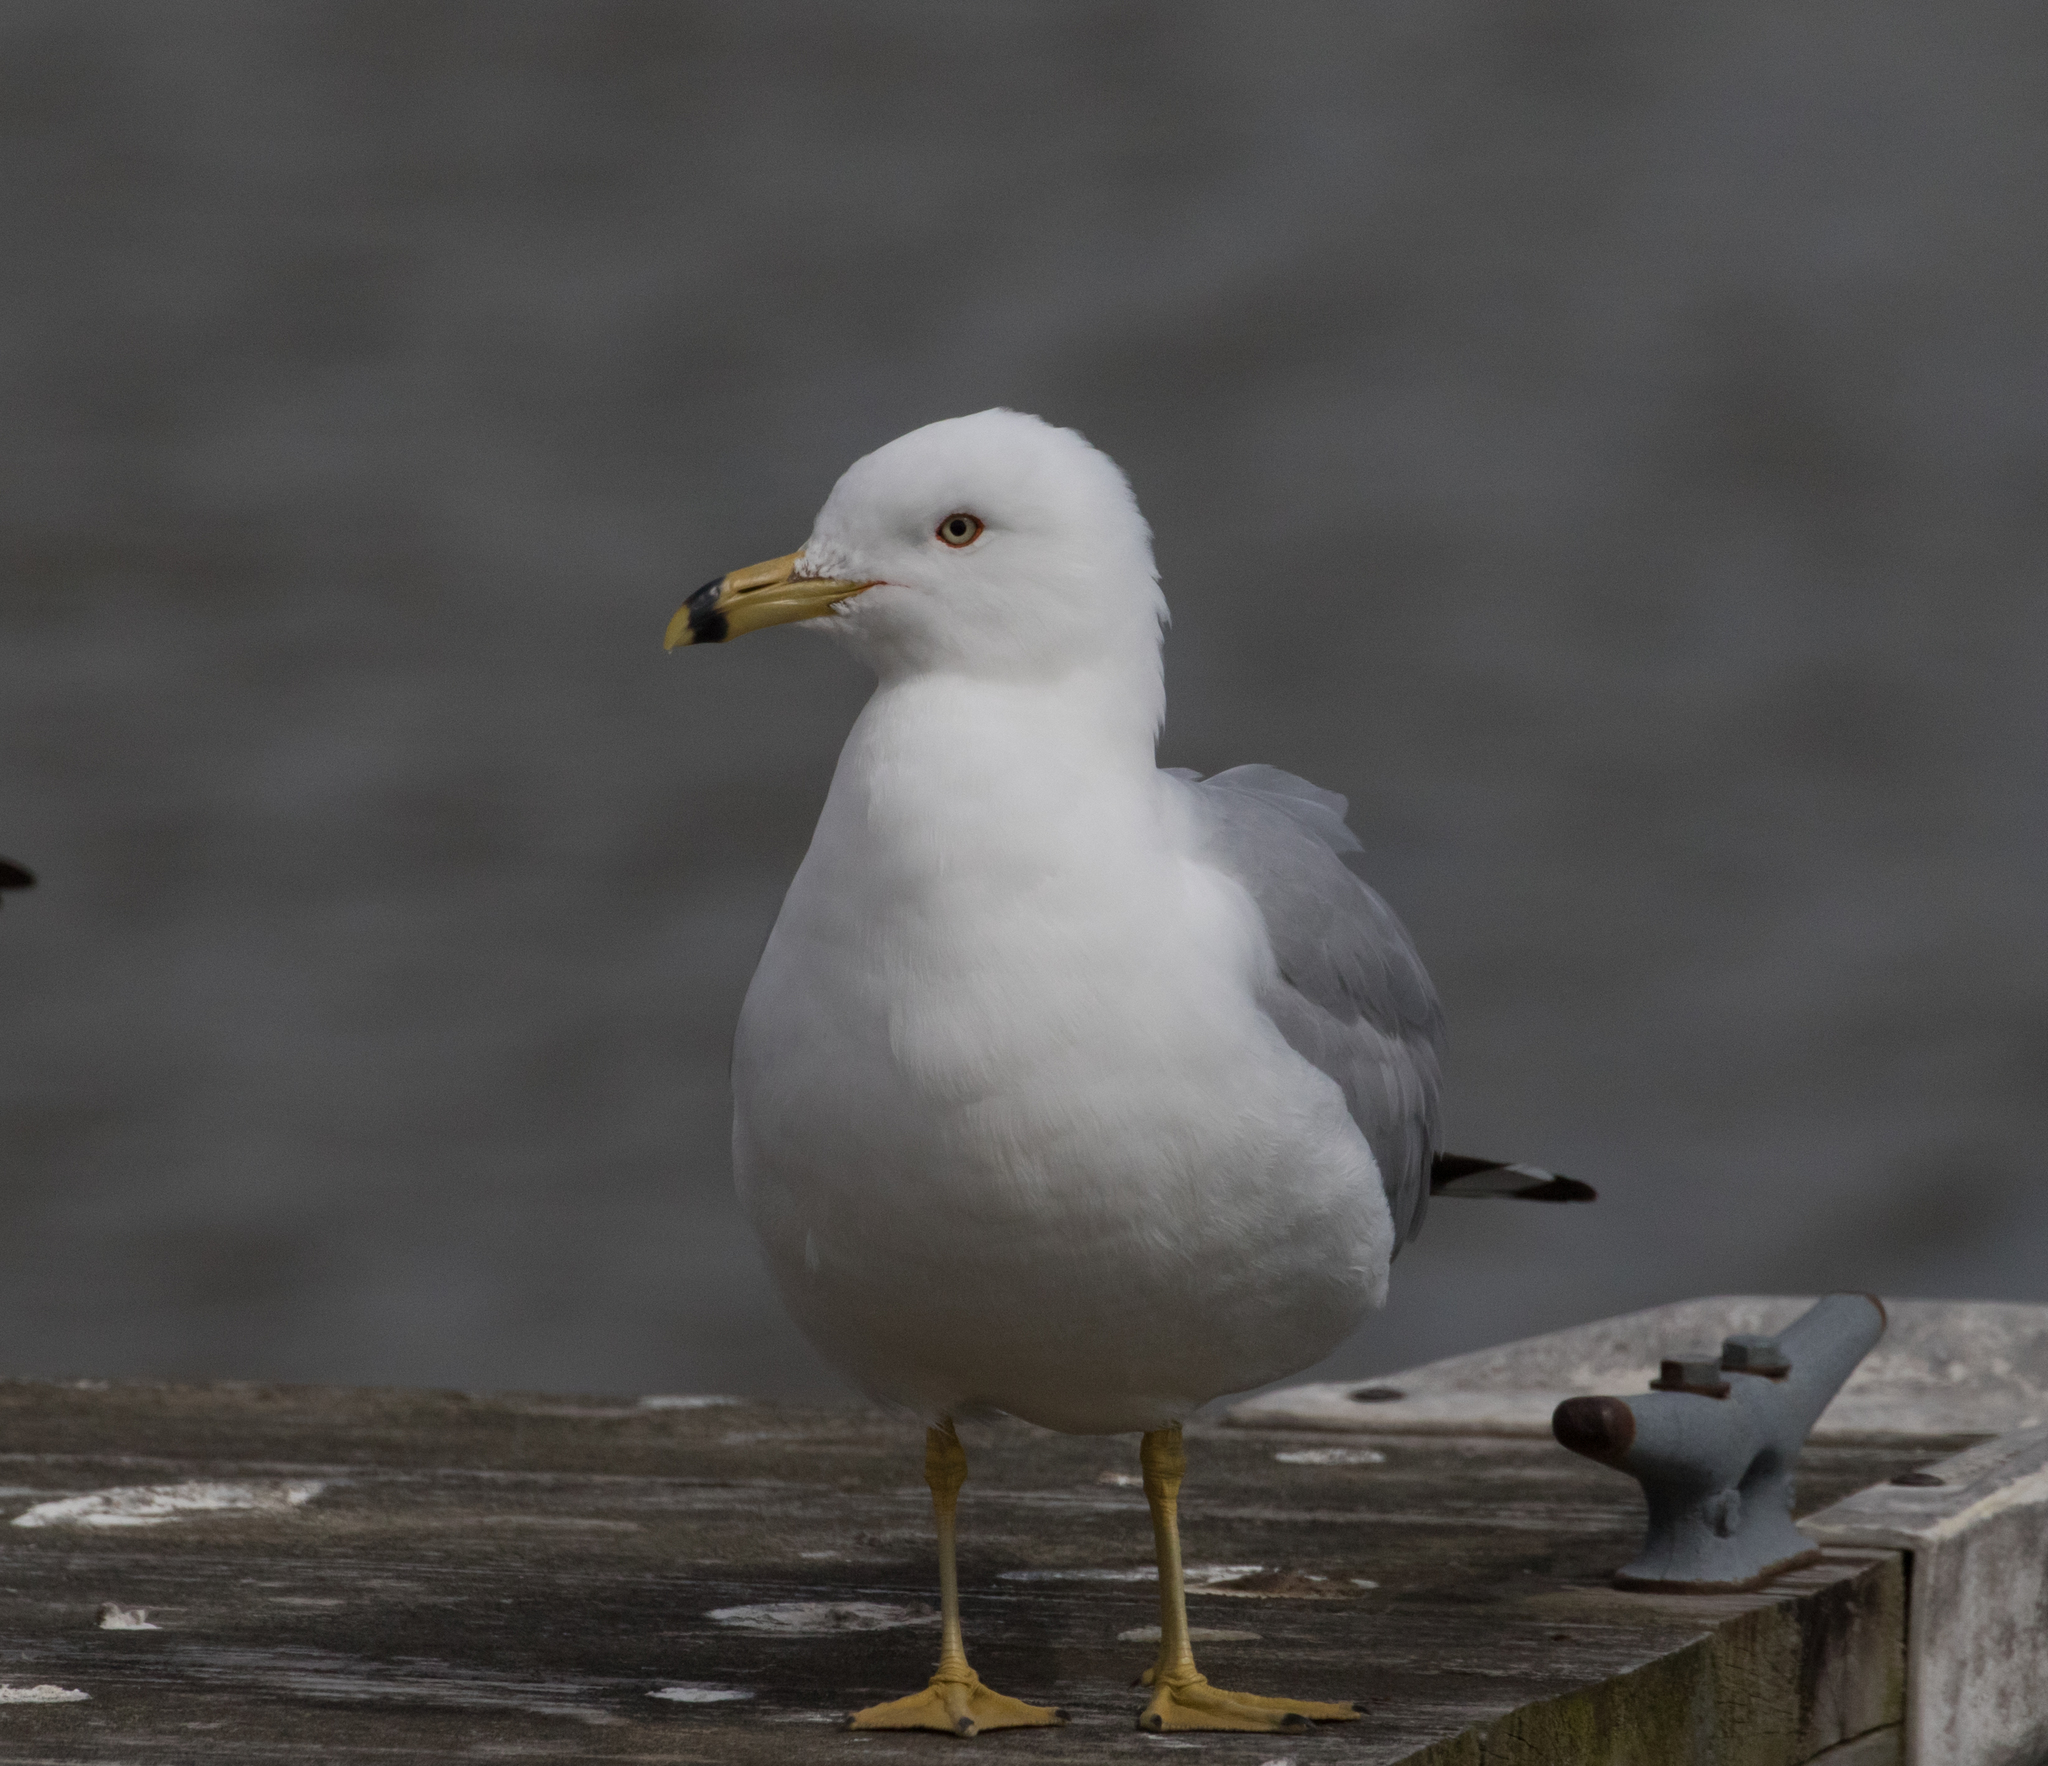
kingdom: Animalia
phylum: Chordata
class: Aves
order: Charadriiformes
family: Laridae
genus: Larus
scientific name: Larus delawarensis
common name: Ring-billed gull
